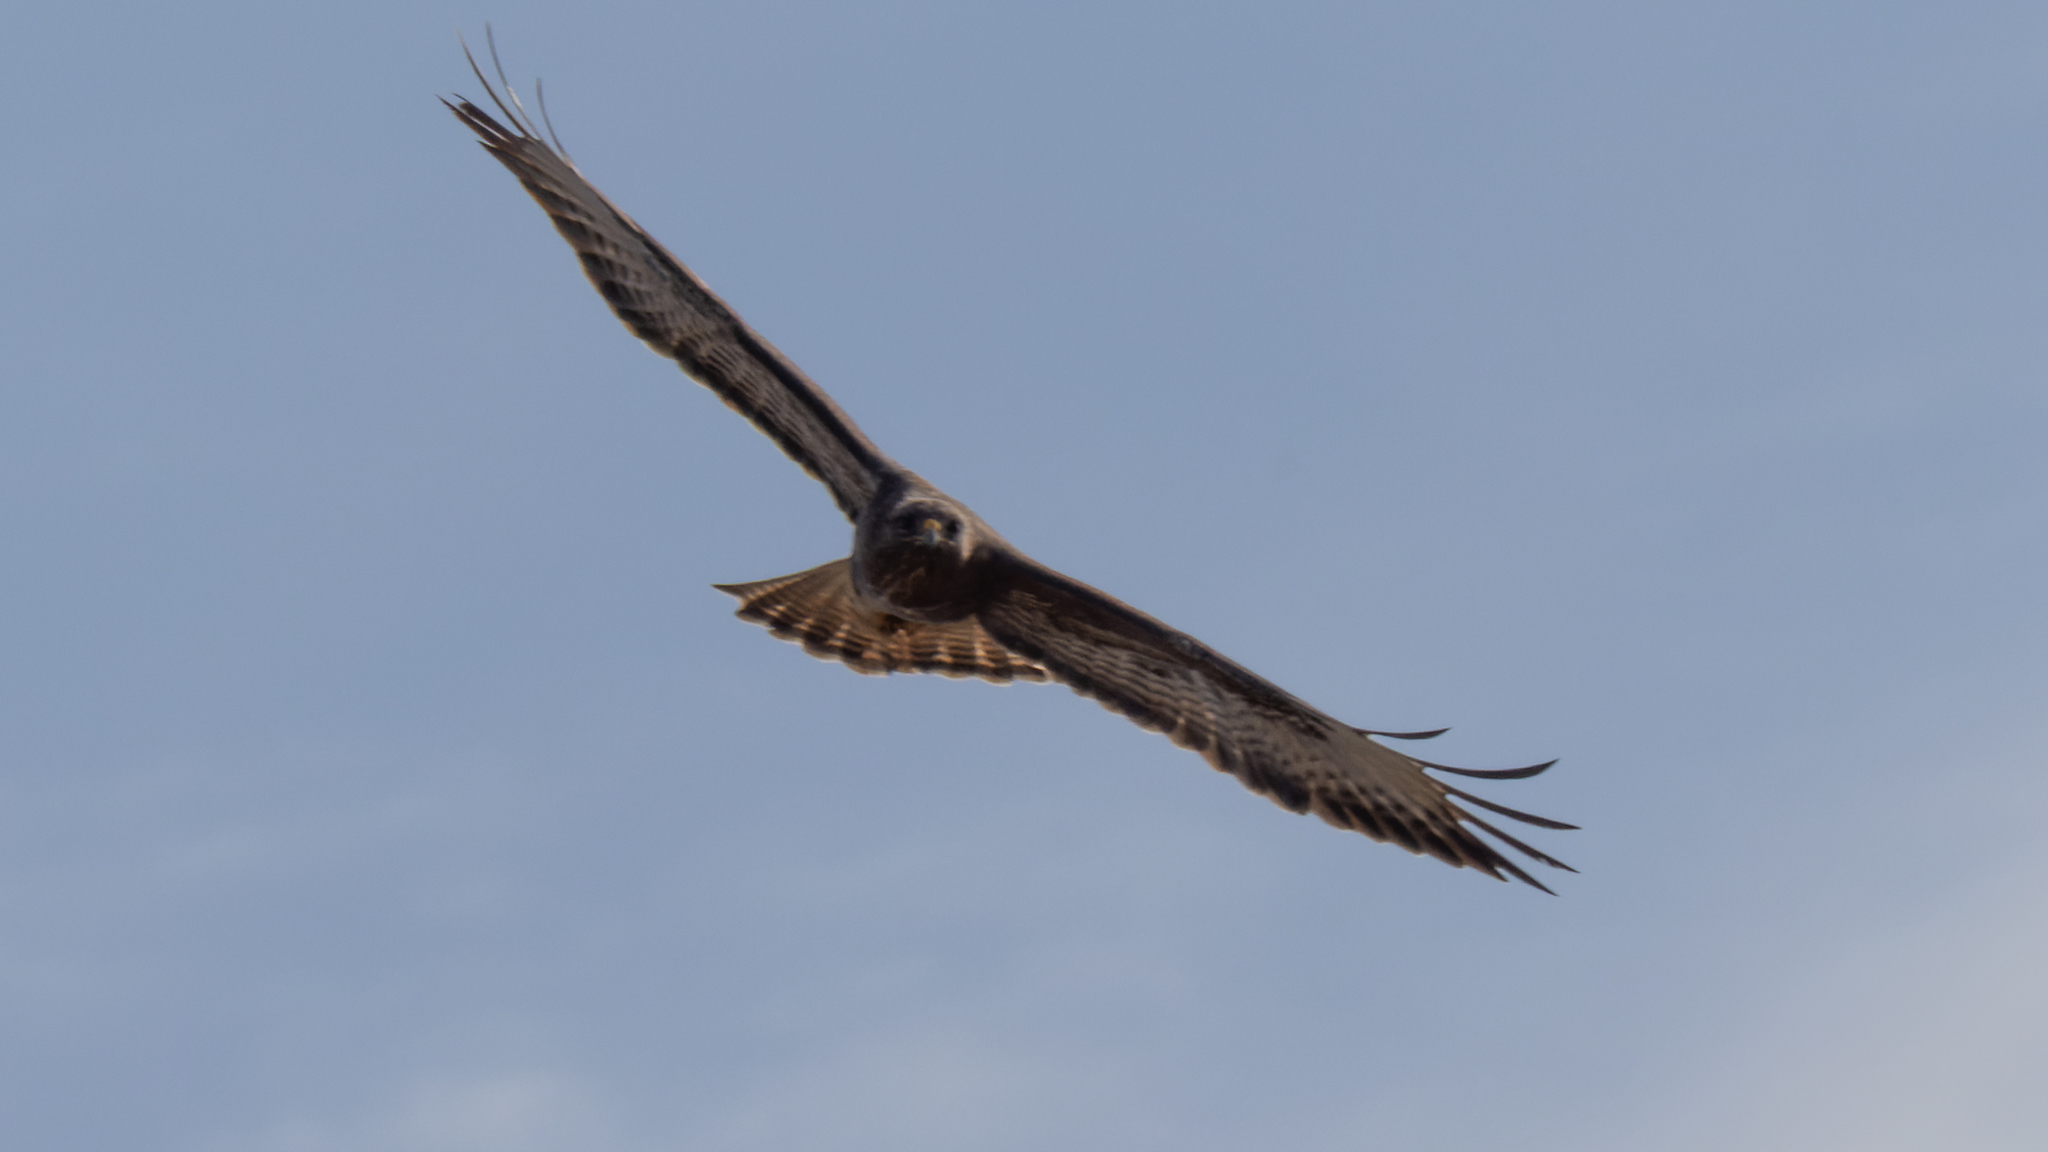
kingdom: Animalia
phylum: Chordata
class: Aves
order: Accipitriformes
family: Accipitridae
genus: Buteo
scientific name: Buteo buteo
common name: Common buzzard
